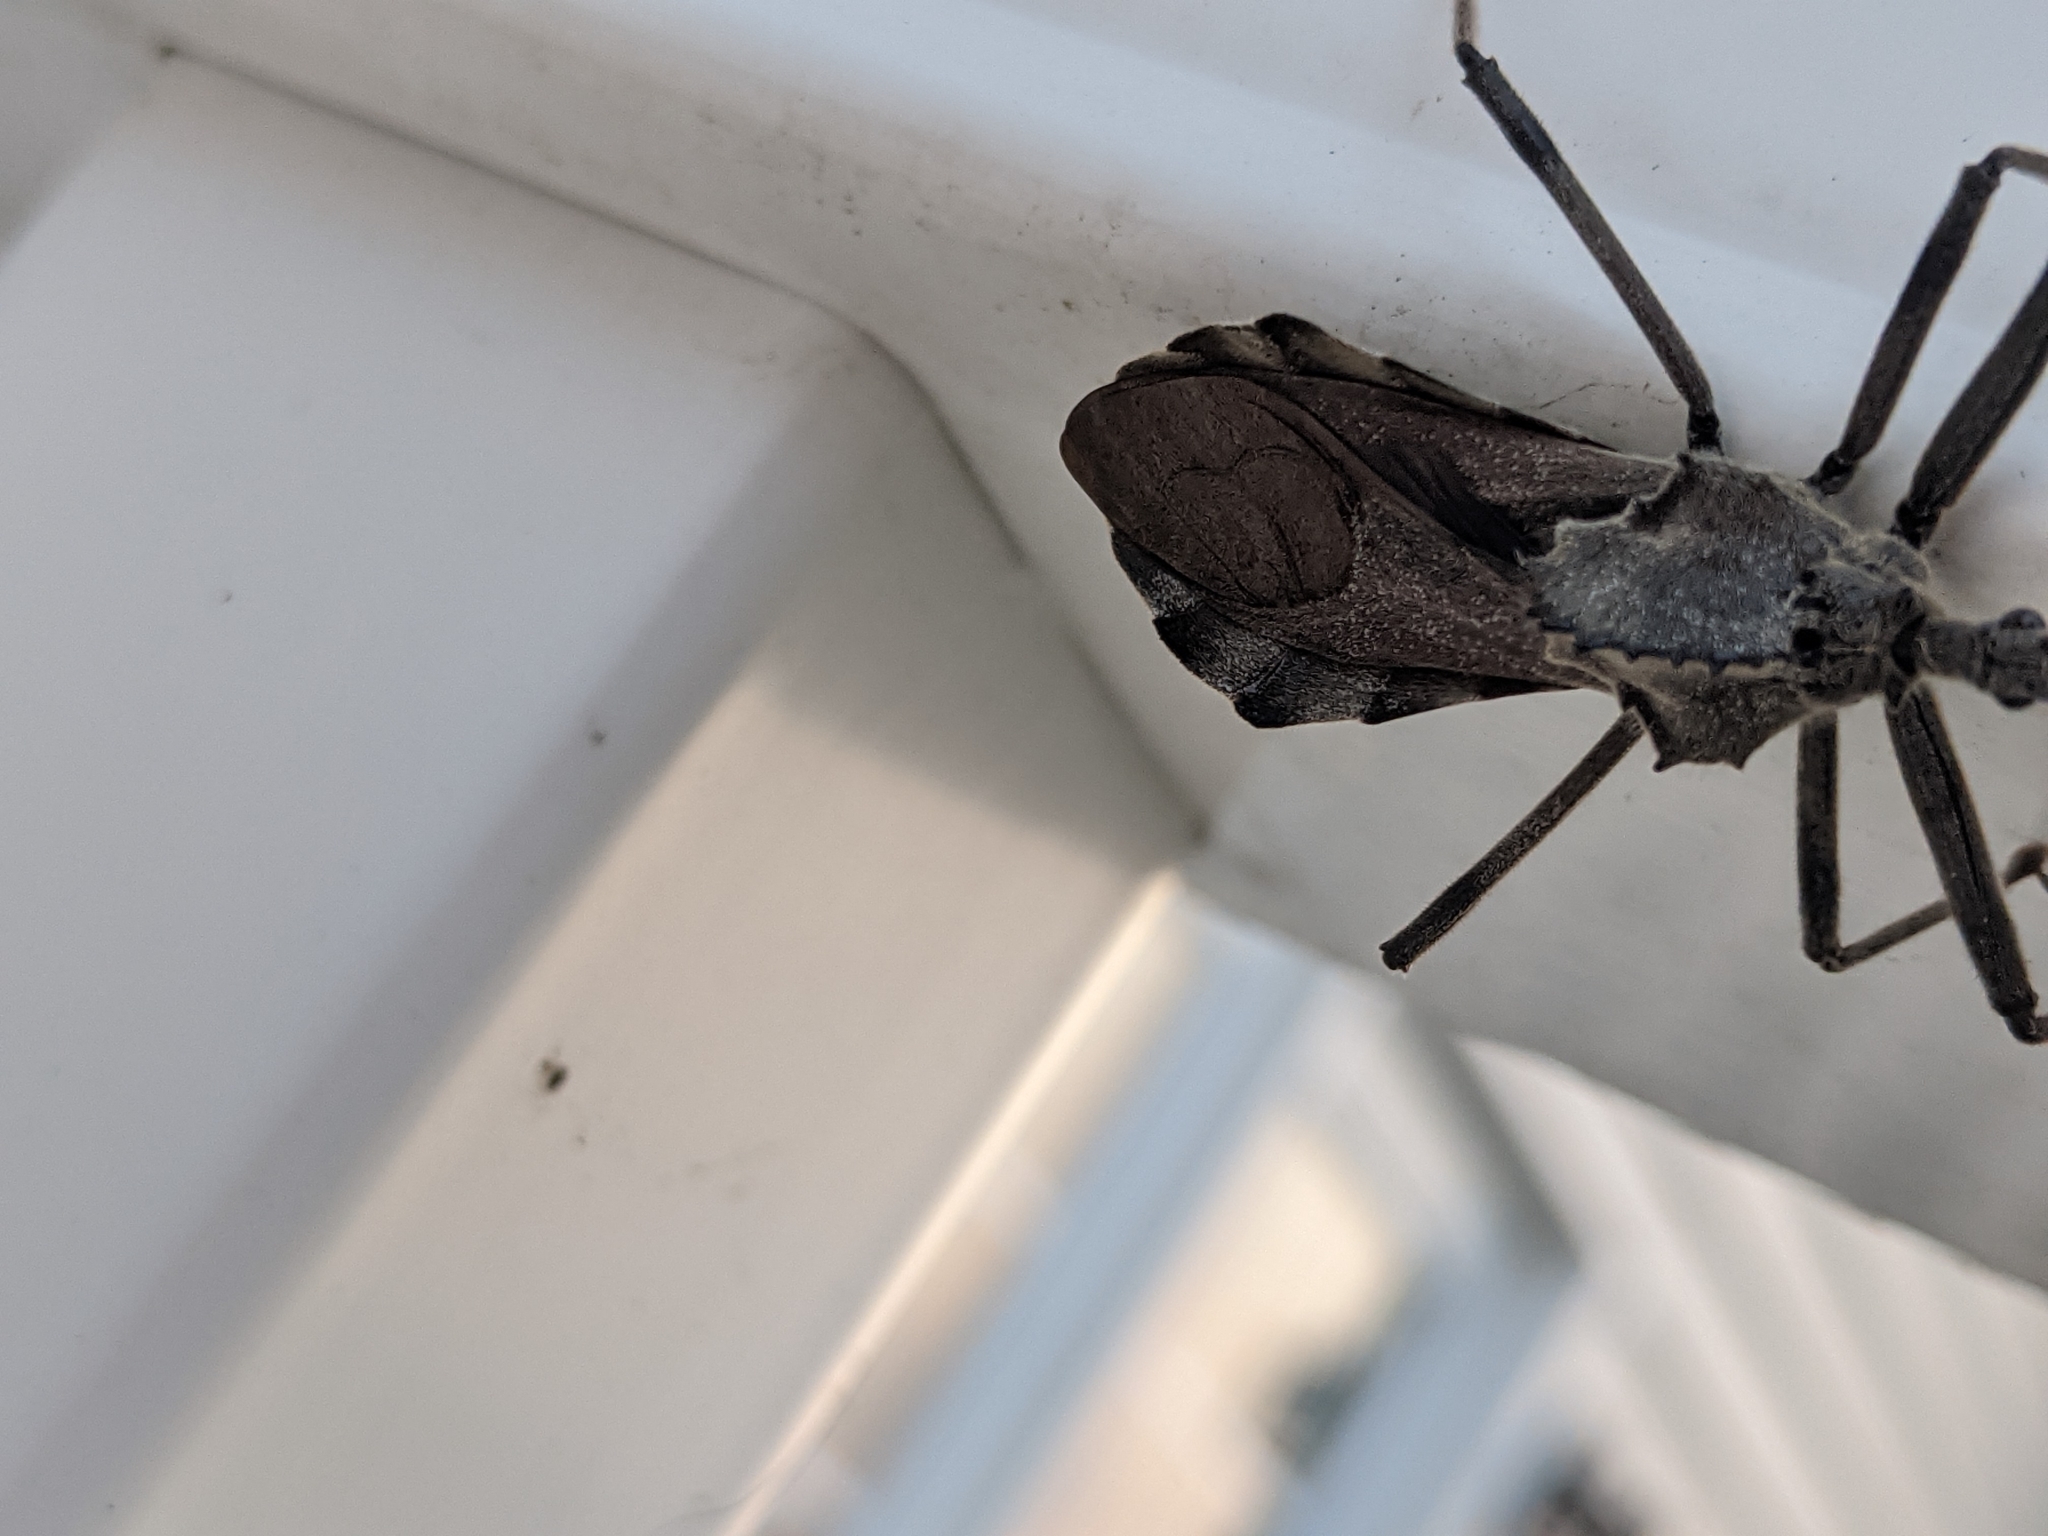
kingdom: Animalia
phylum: Arthropoda
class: Insecta
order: Hemiptera
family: Reduviidae
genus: Arilus
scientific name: Arilus cristatus
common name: North american wheel bug
